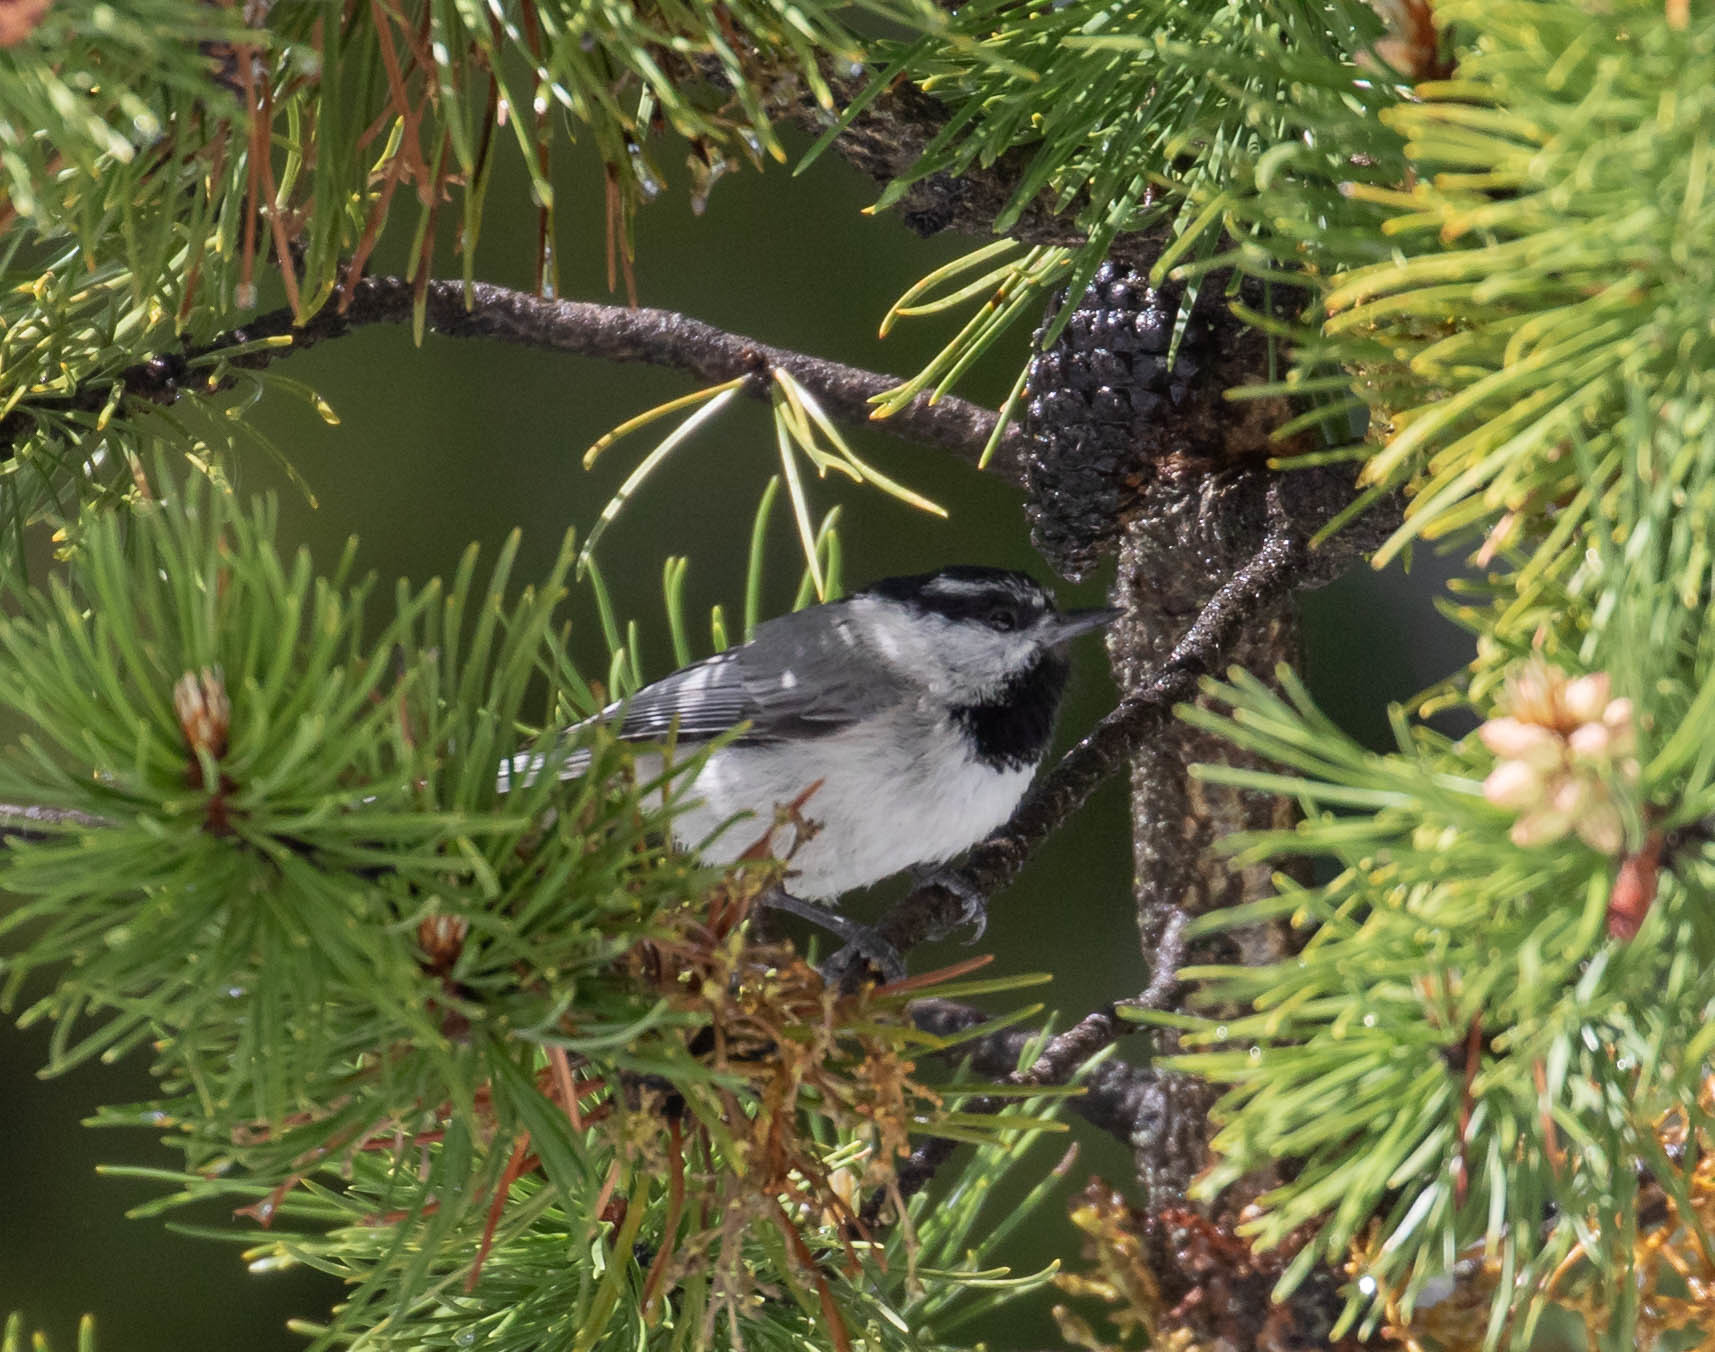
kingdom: Animalia
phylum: Chordata
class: Aves
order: Passeriformes
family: Paridae
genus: Poecile
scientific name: Poecile gambeli
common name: Mountain chickadee
